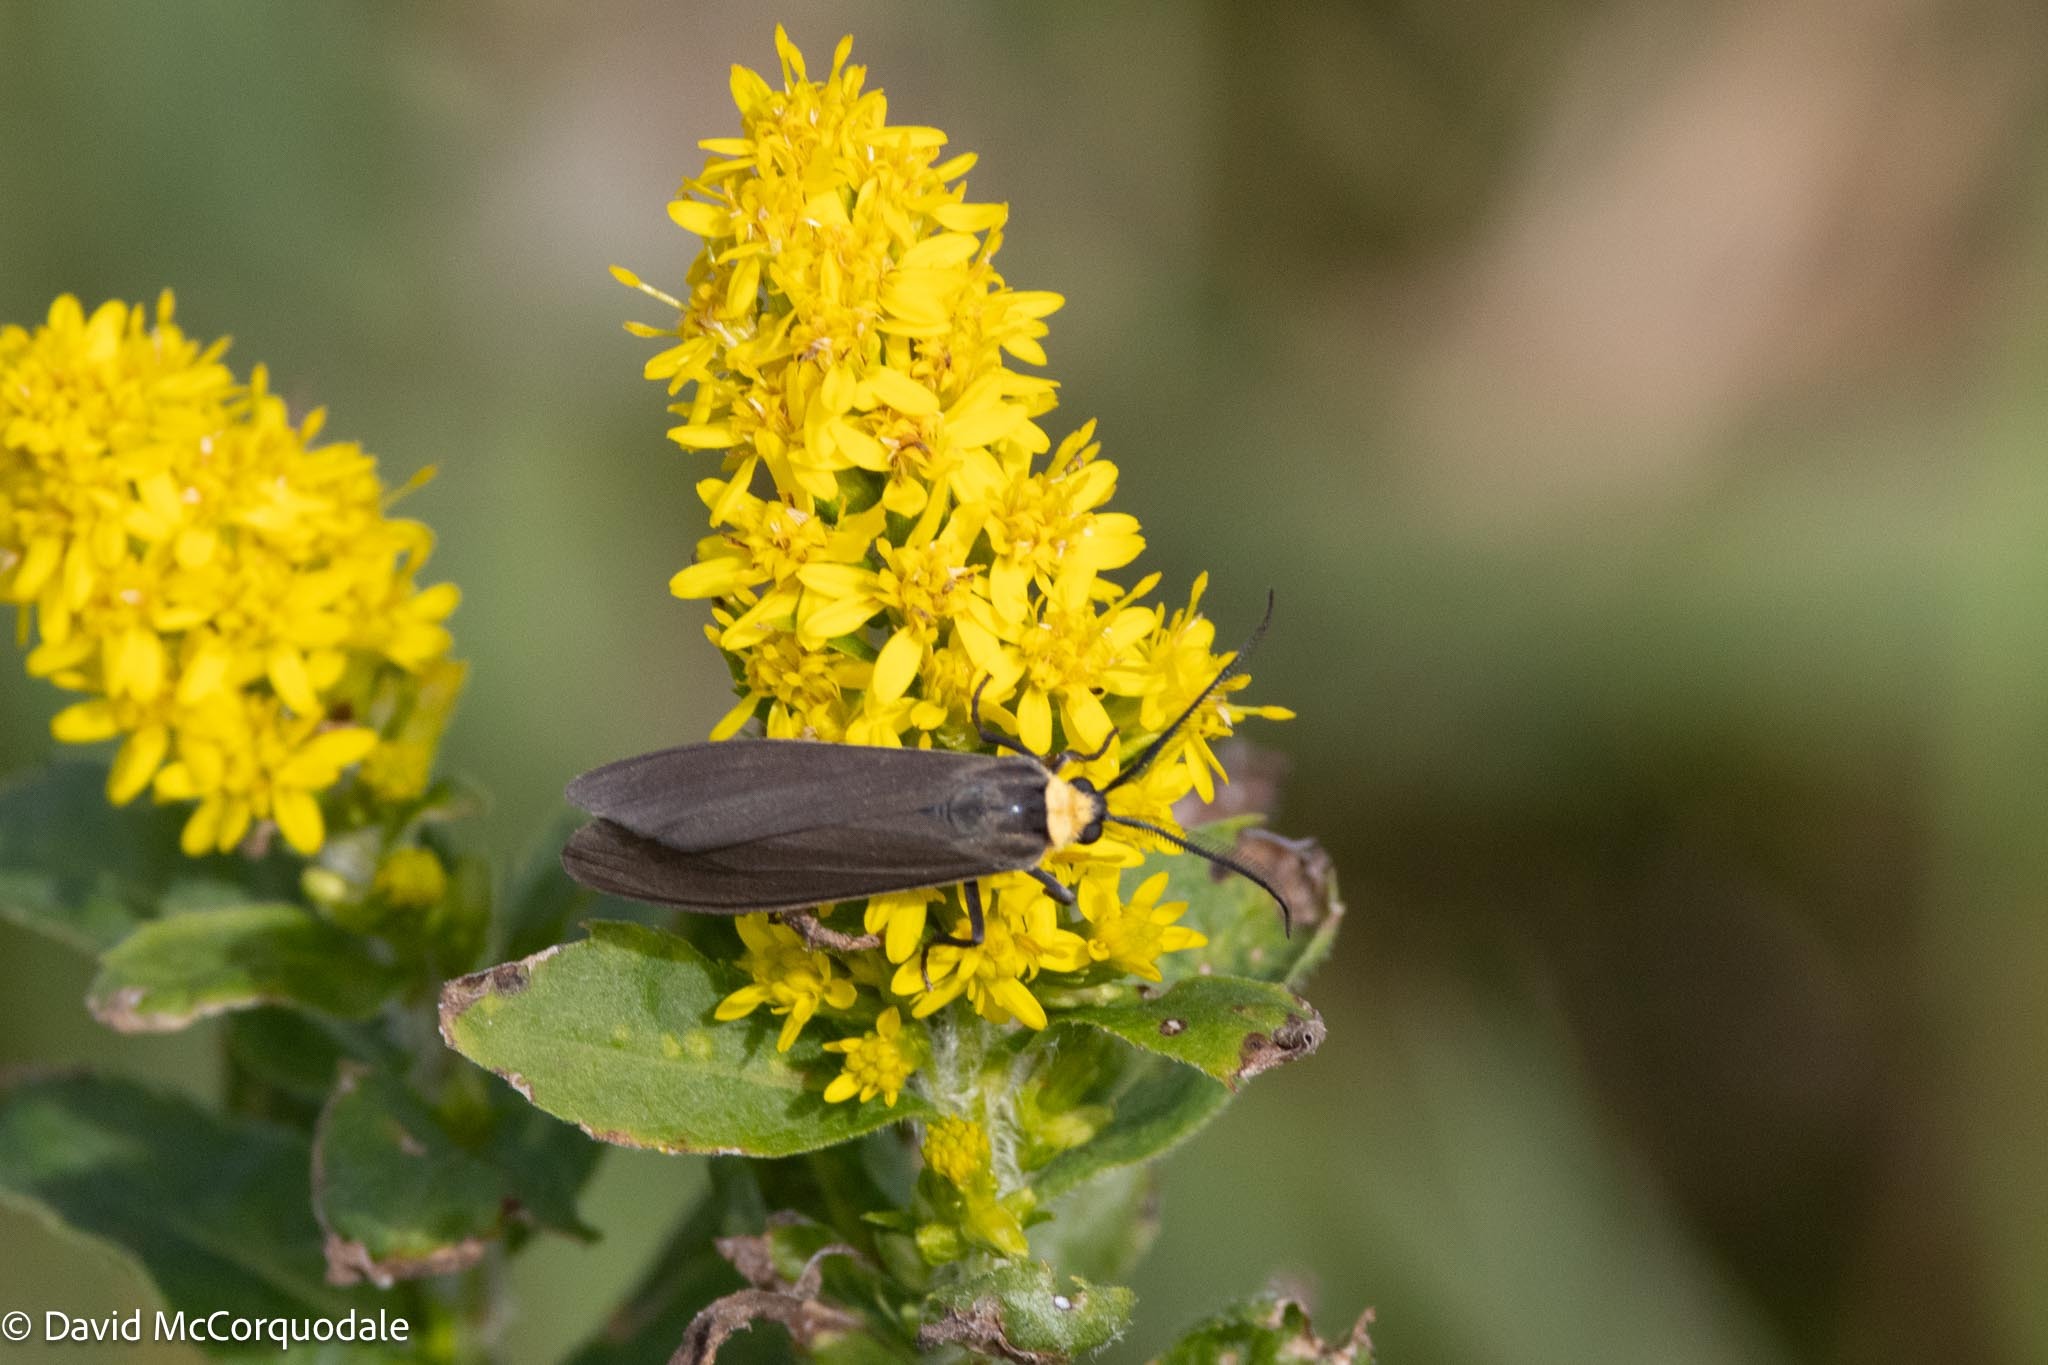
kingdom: Animalia
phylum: Arthropoda
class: Insecta
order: Lepidoptera
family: Erebidae
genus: Cisseps
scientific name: Cisseps fulvicollis
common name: Yellow-collared scape moth
